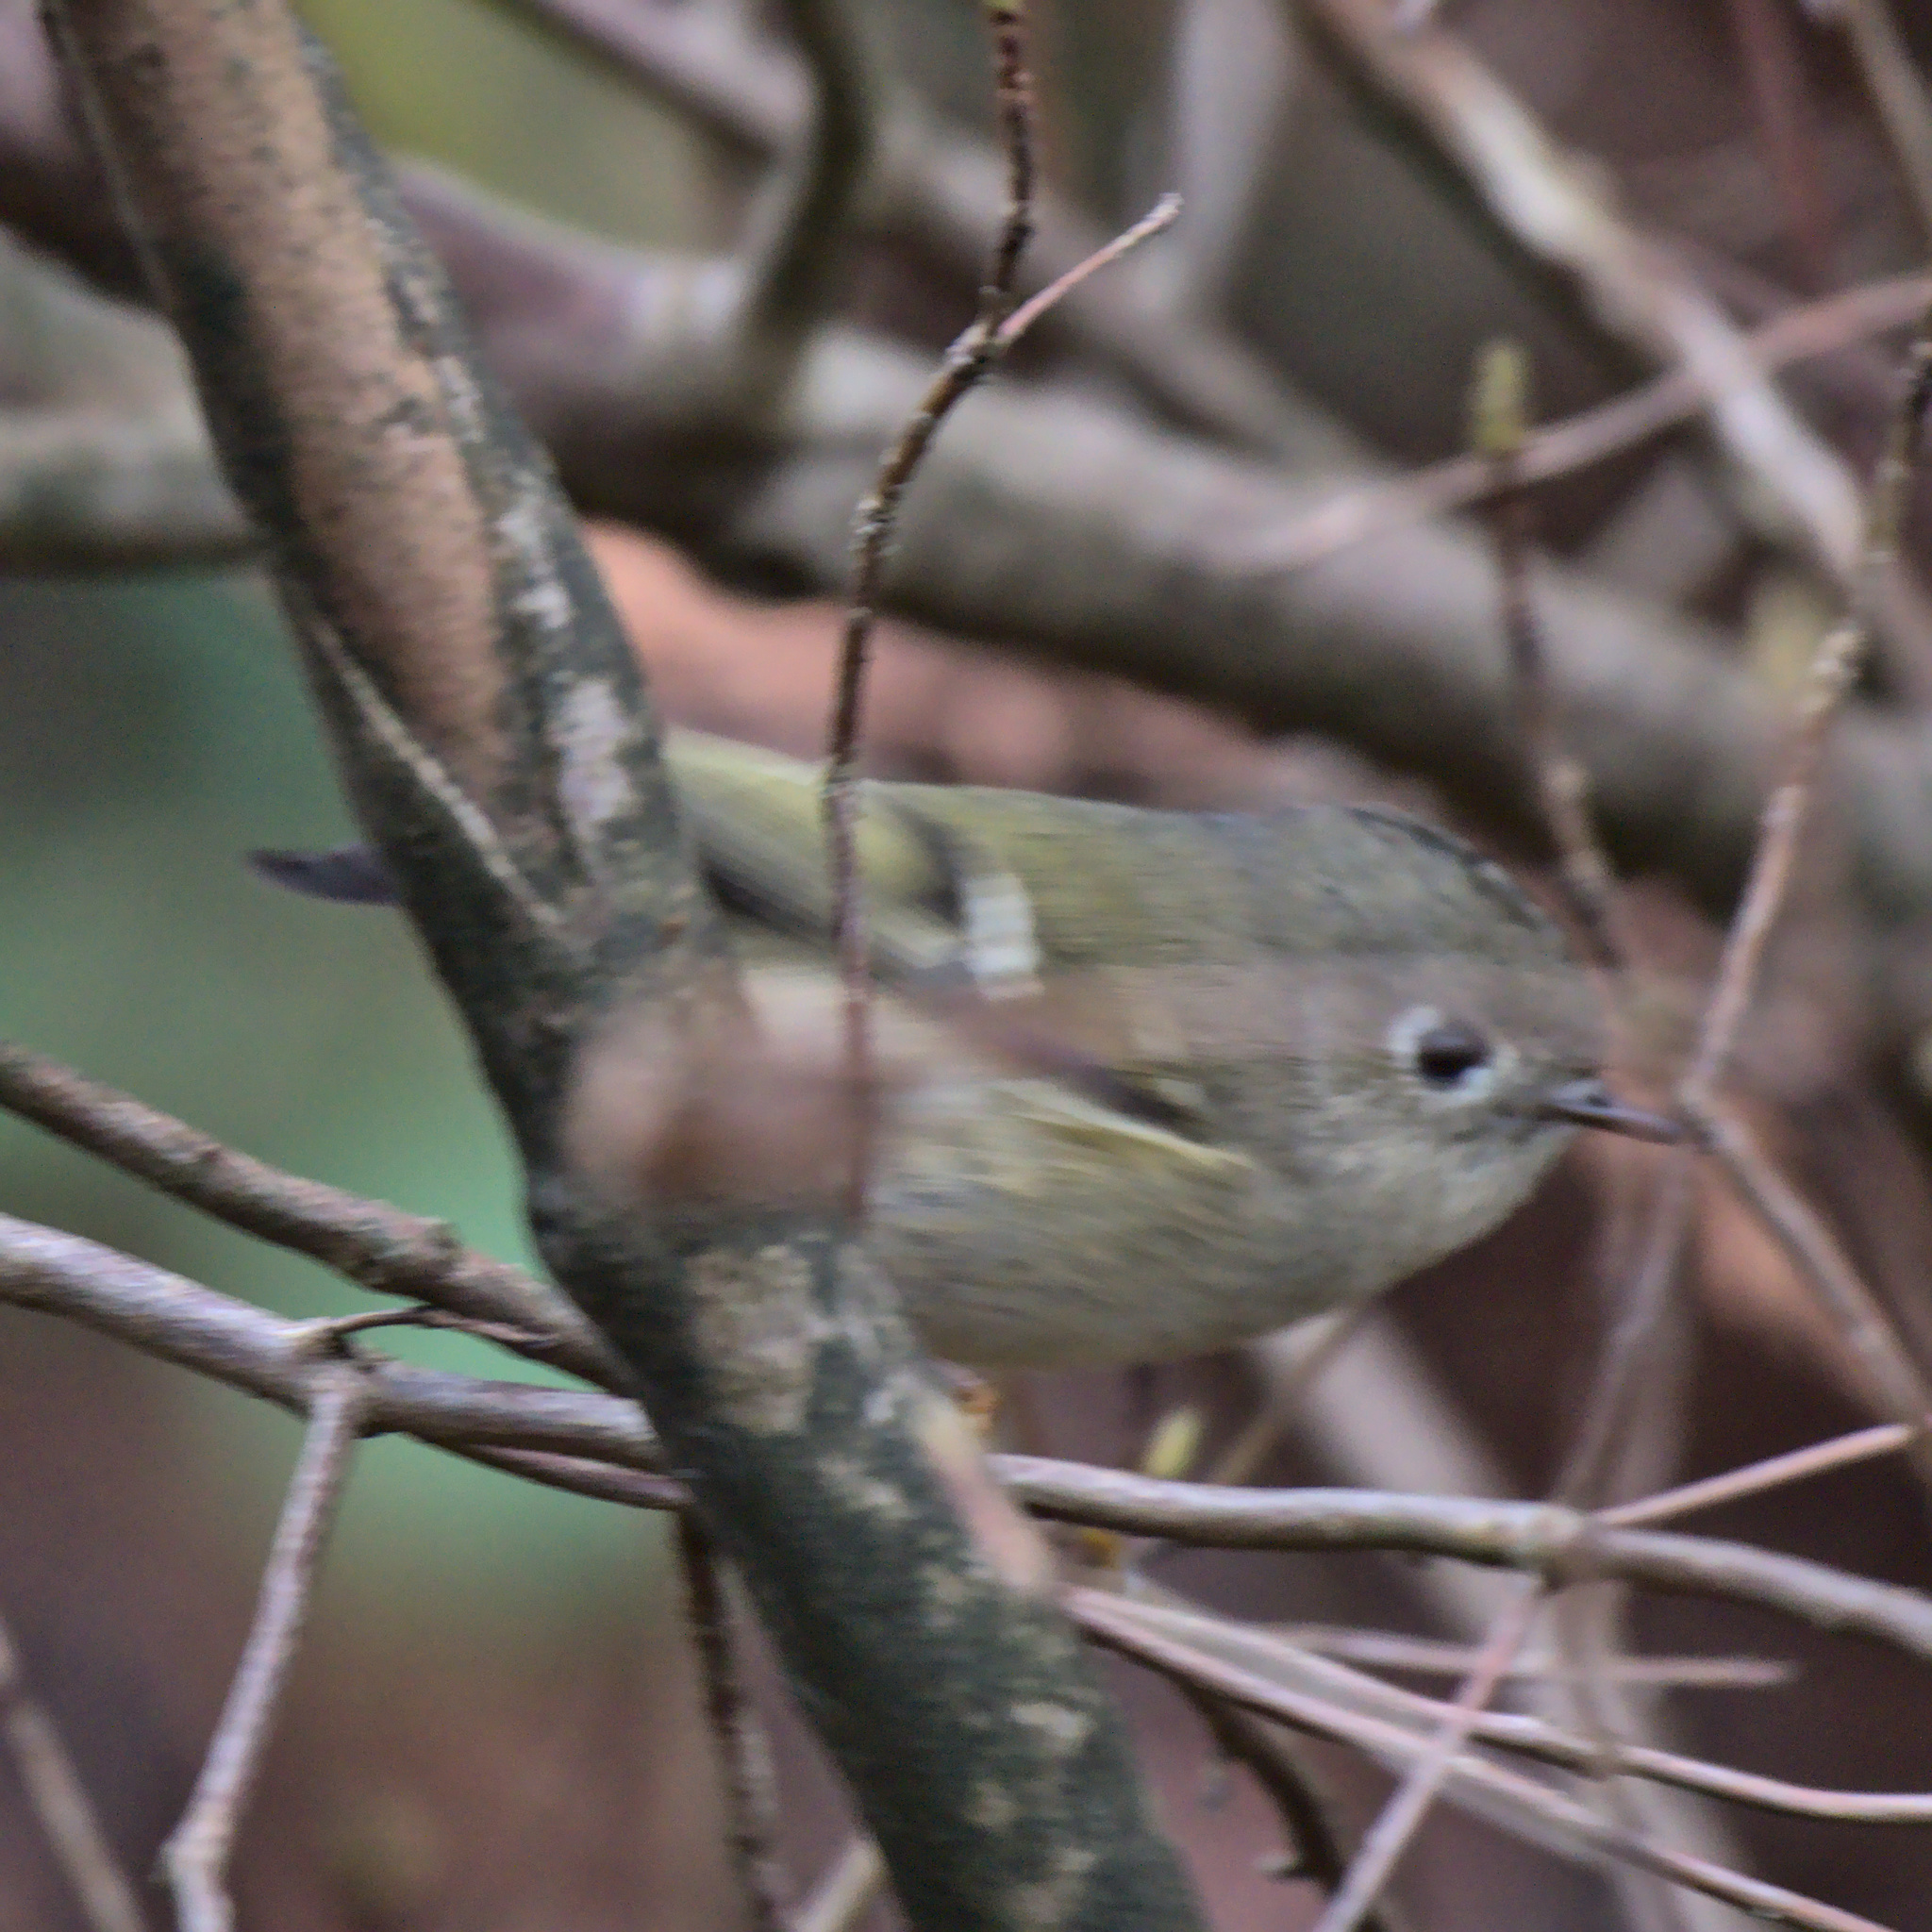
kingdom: Animalia
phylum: Chordata
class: Aves
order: Passeriformes
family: Regulidae
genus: Regulus
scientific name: Regulus calendula
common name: Ruby-crowned kinglet
